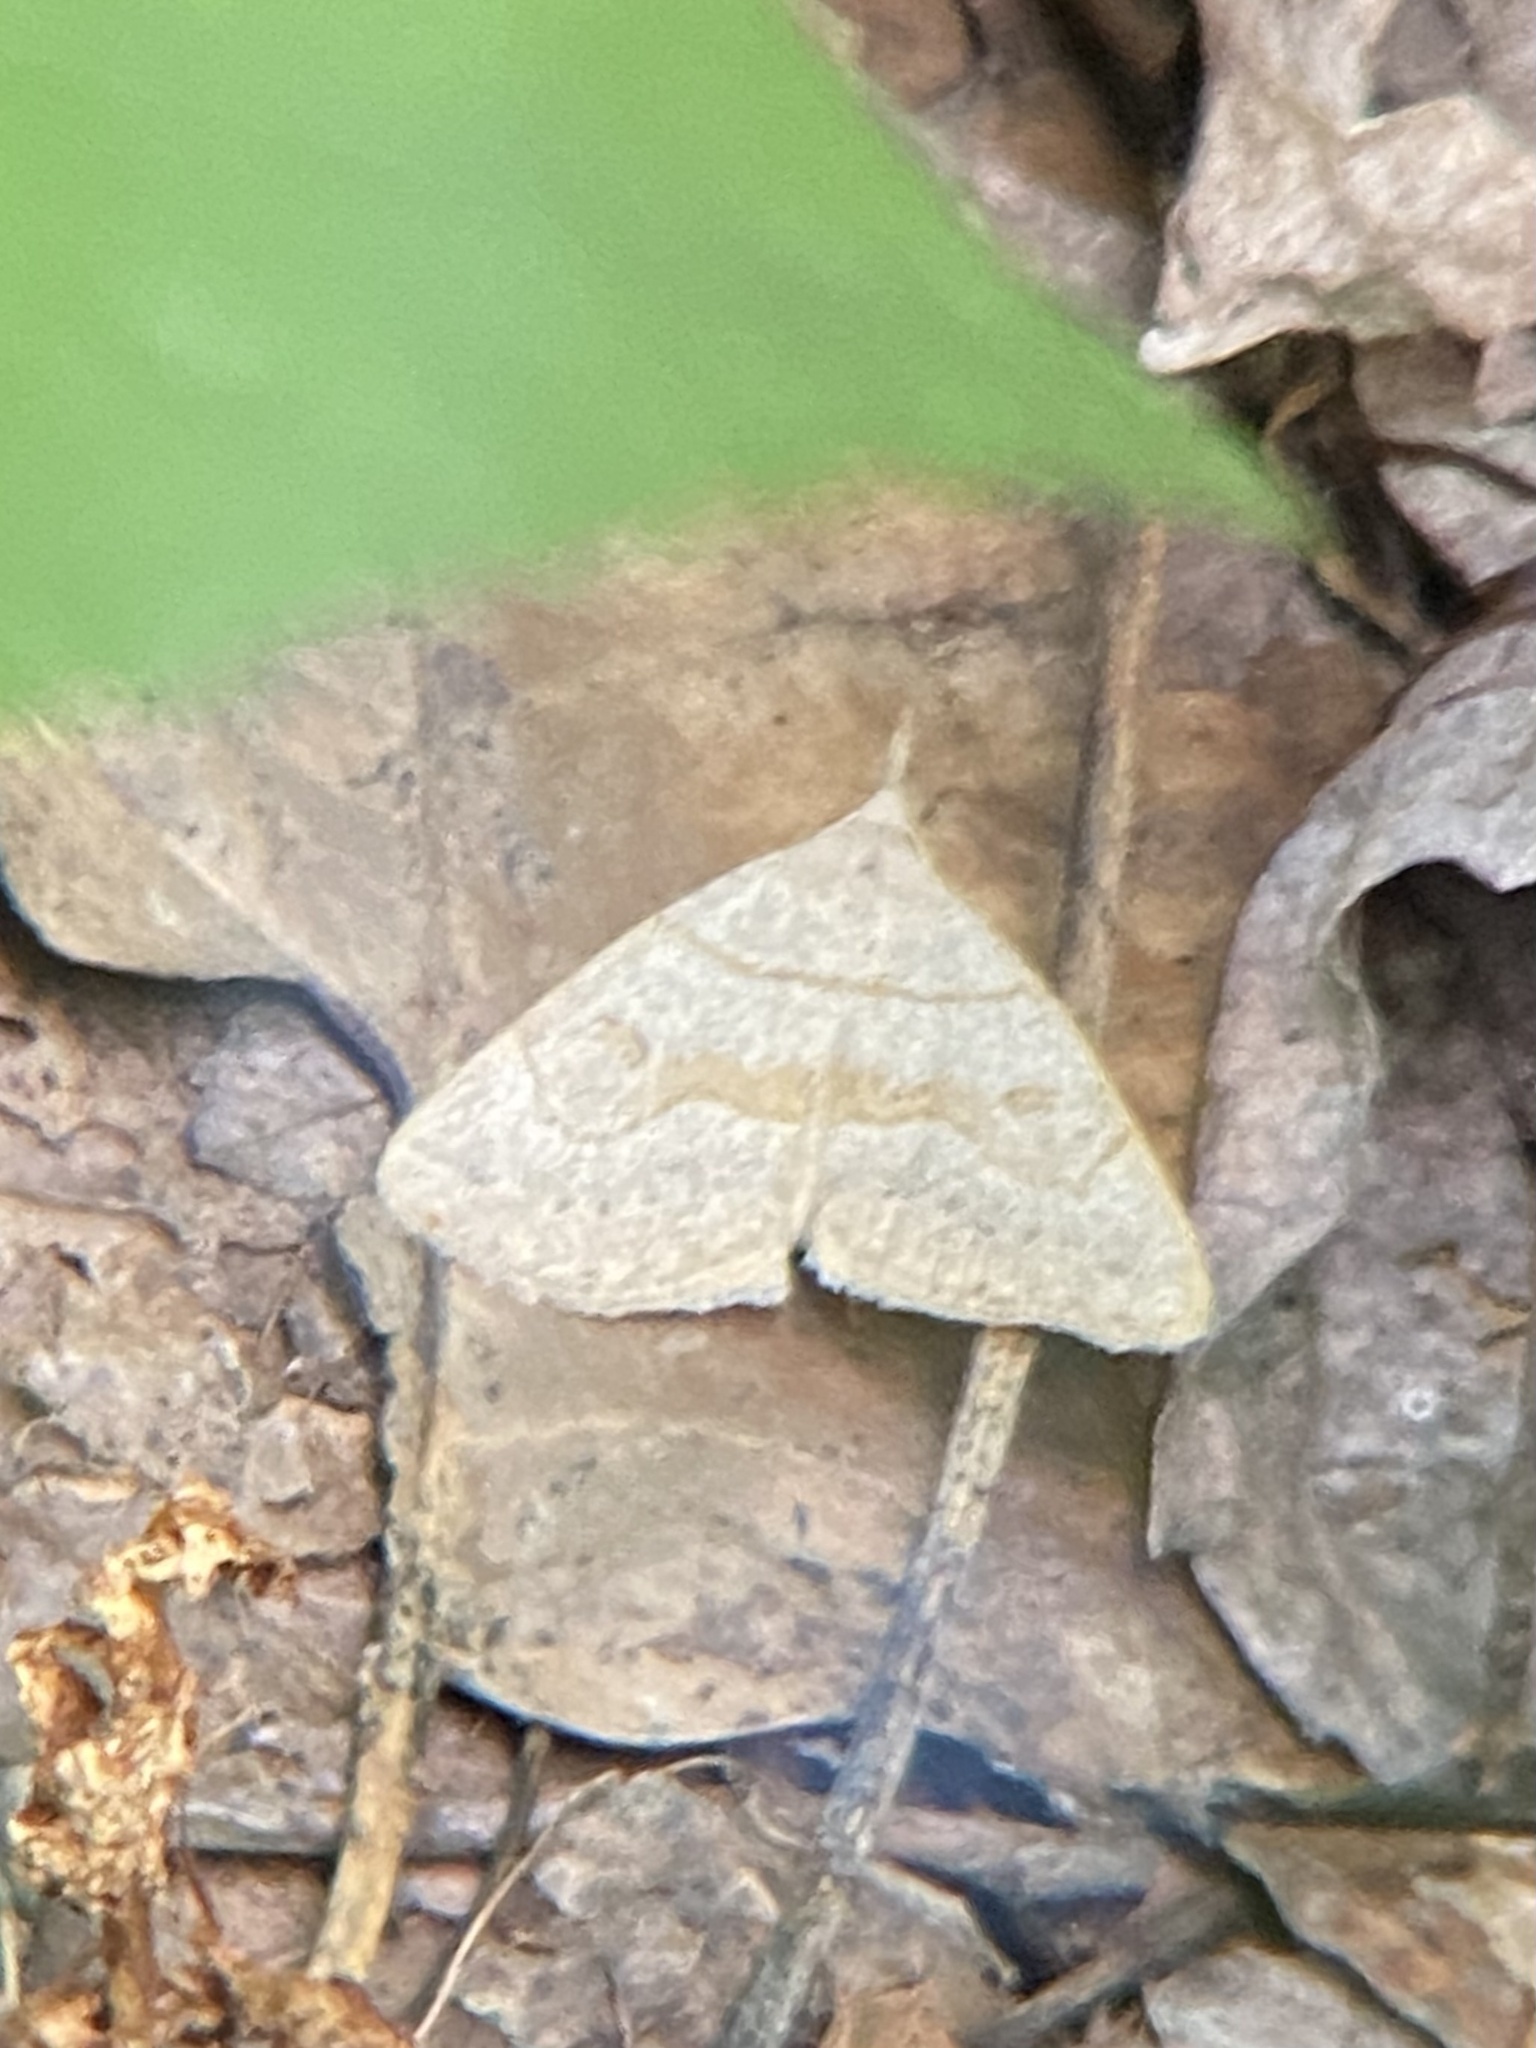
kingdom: Animalia
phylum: Arthropoda
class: Insecta
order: Lepidoptera
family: Erebidae
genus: Macrochilo
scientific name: Macrochilo morbidalis
